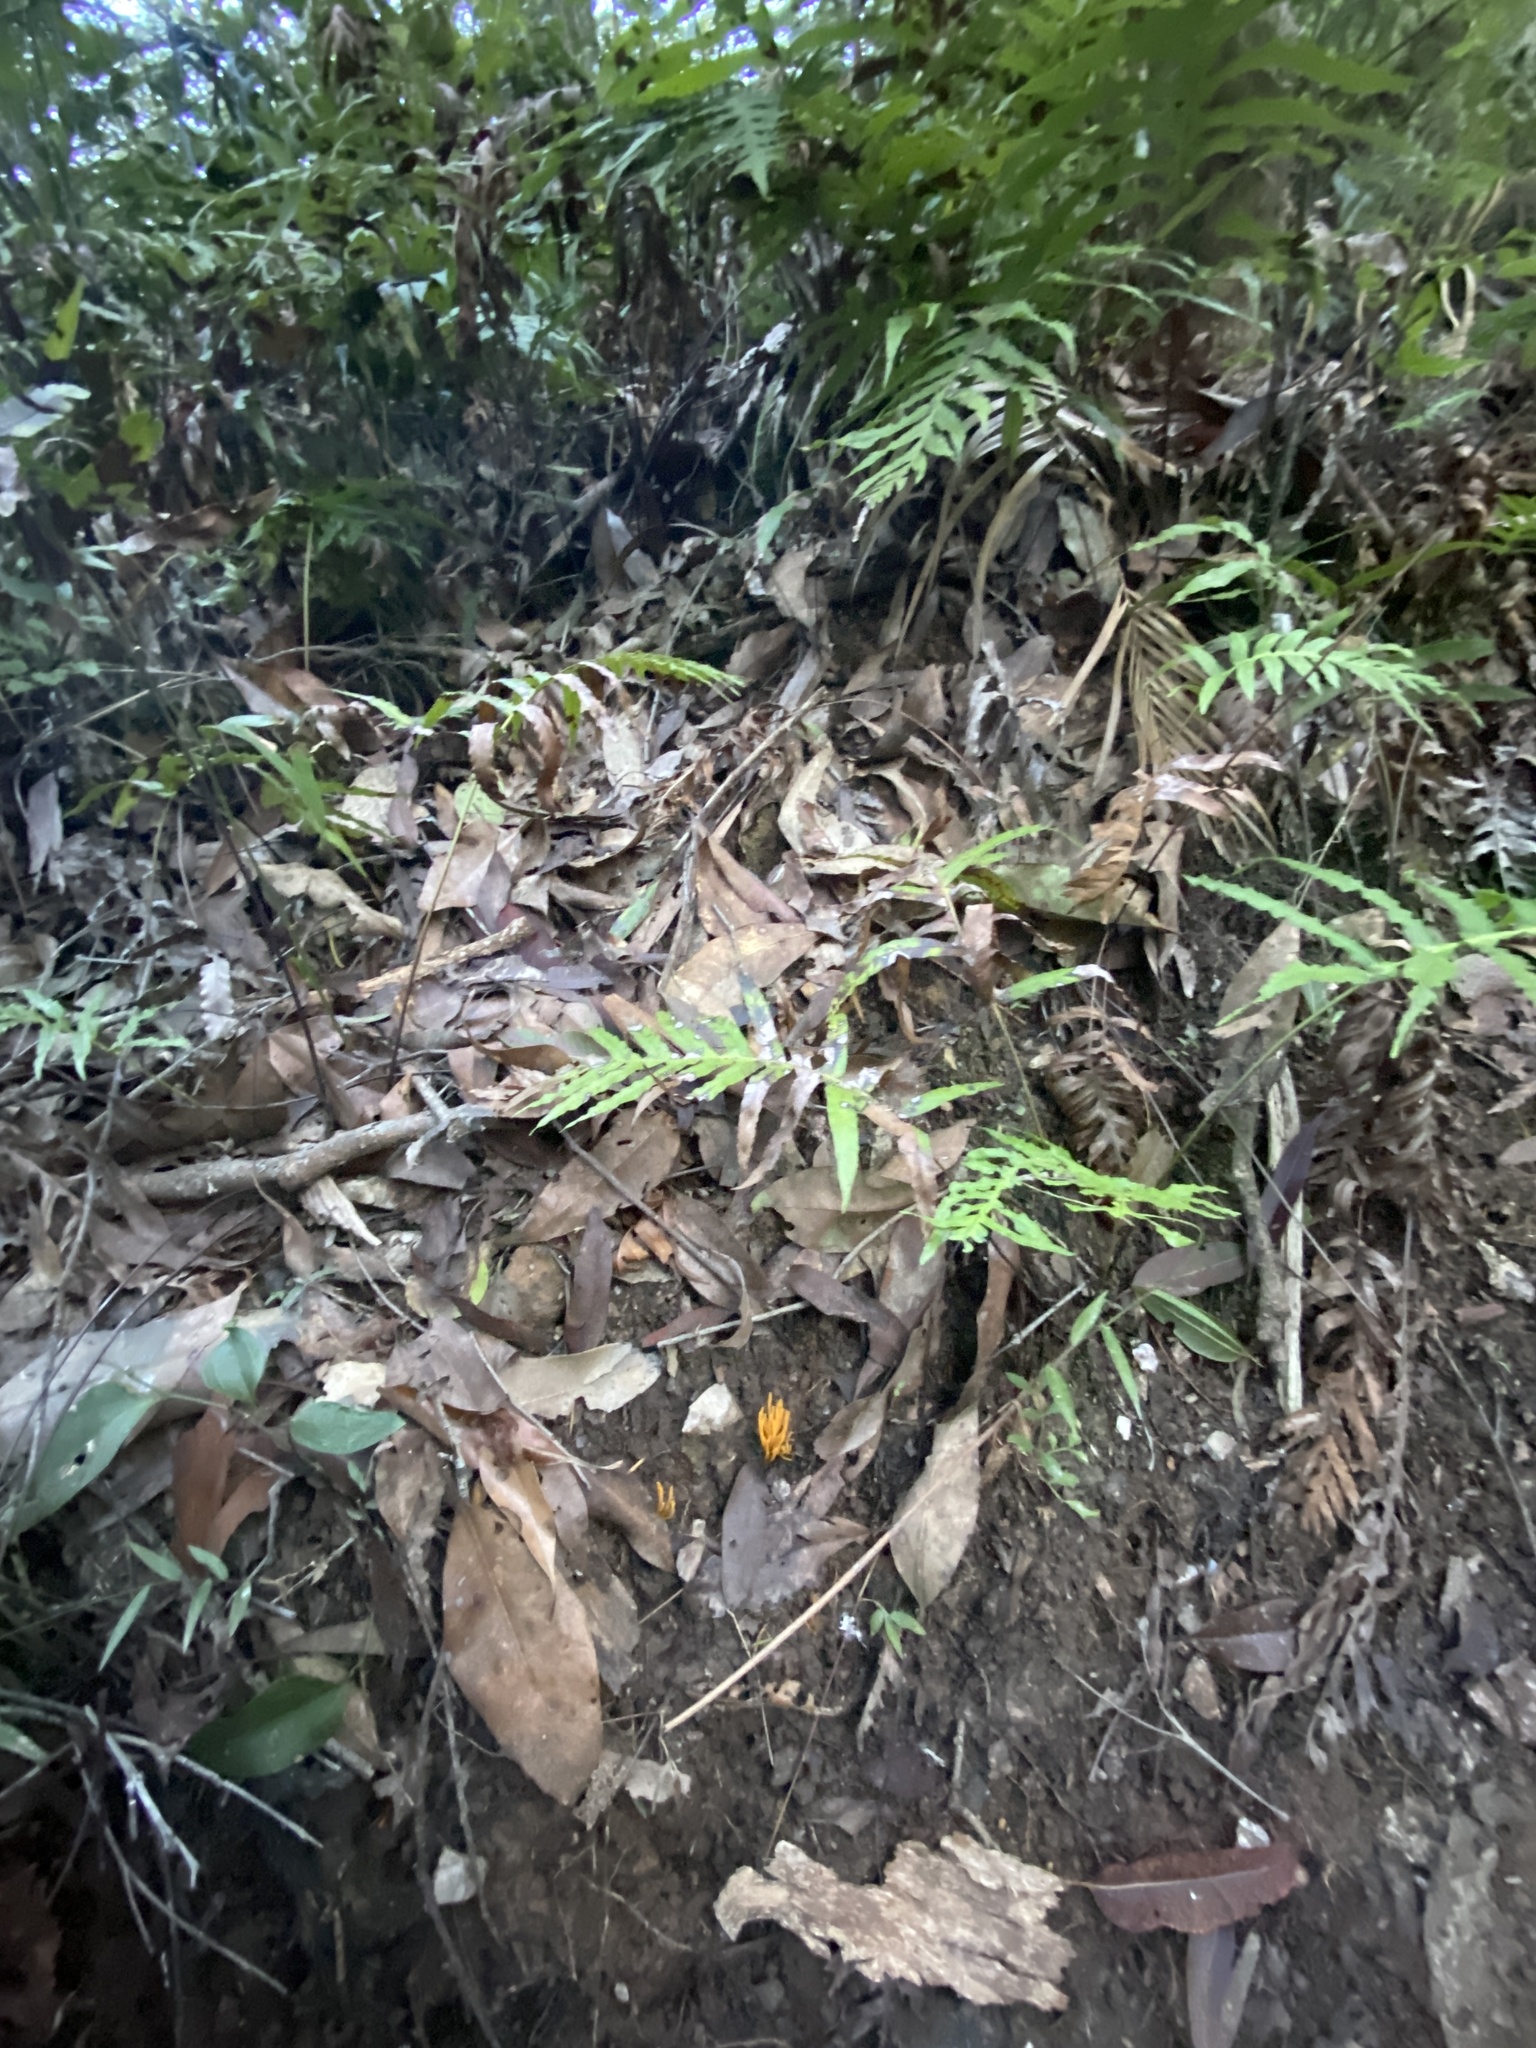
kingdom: Fungi
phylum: Basidiomycota
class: Agaricomycetes
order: Agaricales
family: Clavariaceae
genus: Clavulinopsis
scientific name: Clavulinopsis amoena
